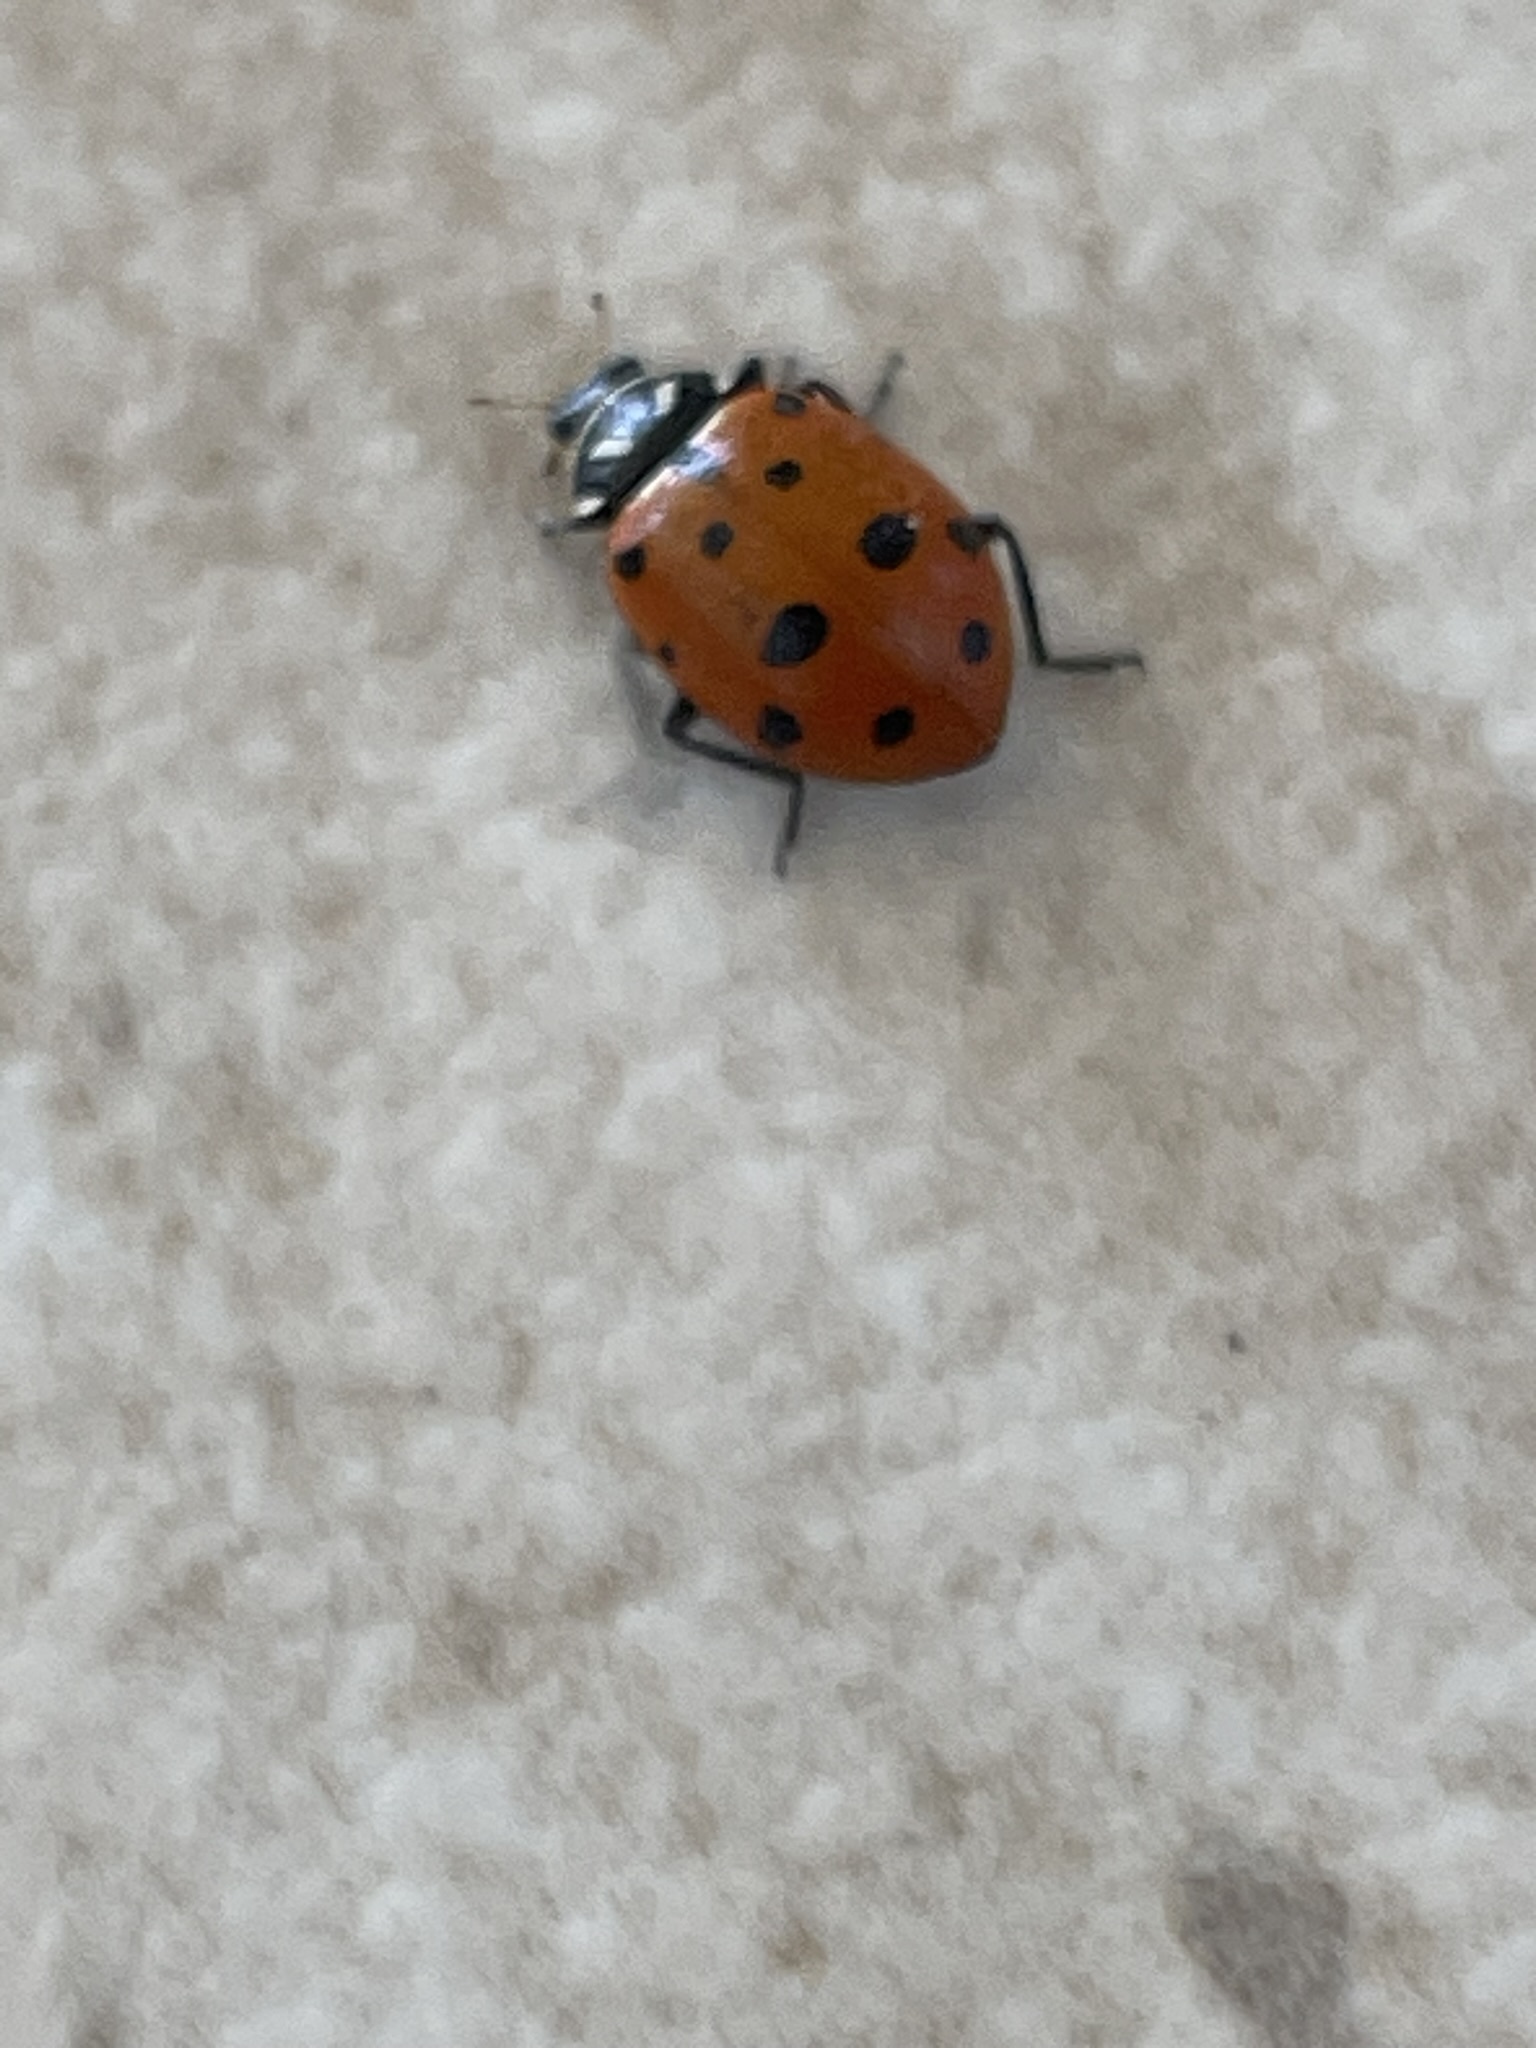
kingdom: Animalia
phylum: Arthropoda
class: Insecta
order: Coleoptera
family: Coccinellidae
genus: Hippodamia
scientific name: Hippodamia convergens
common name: Convergent lady beetle
